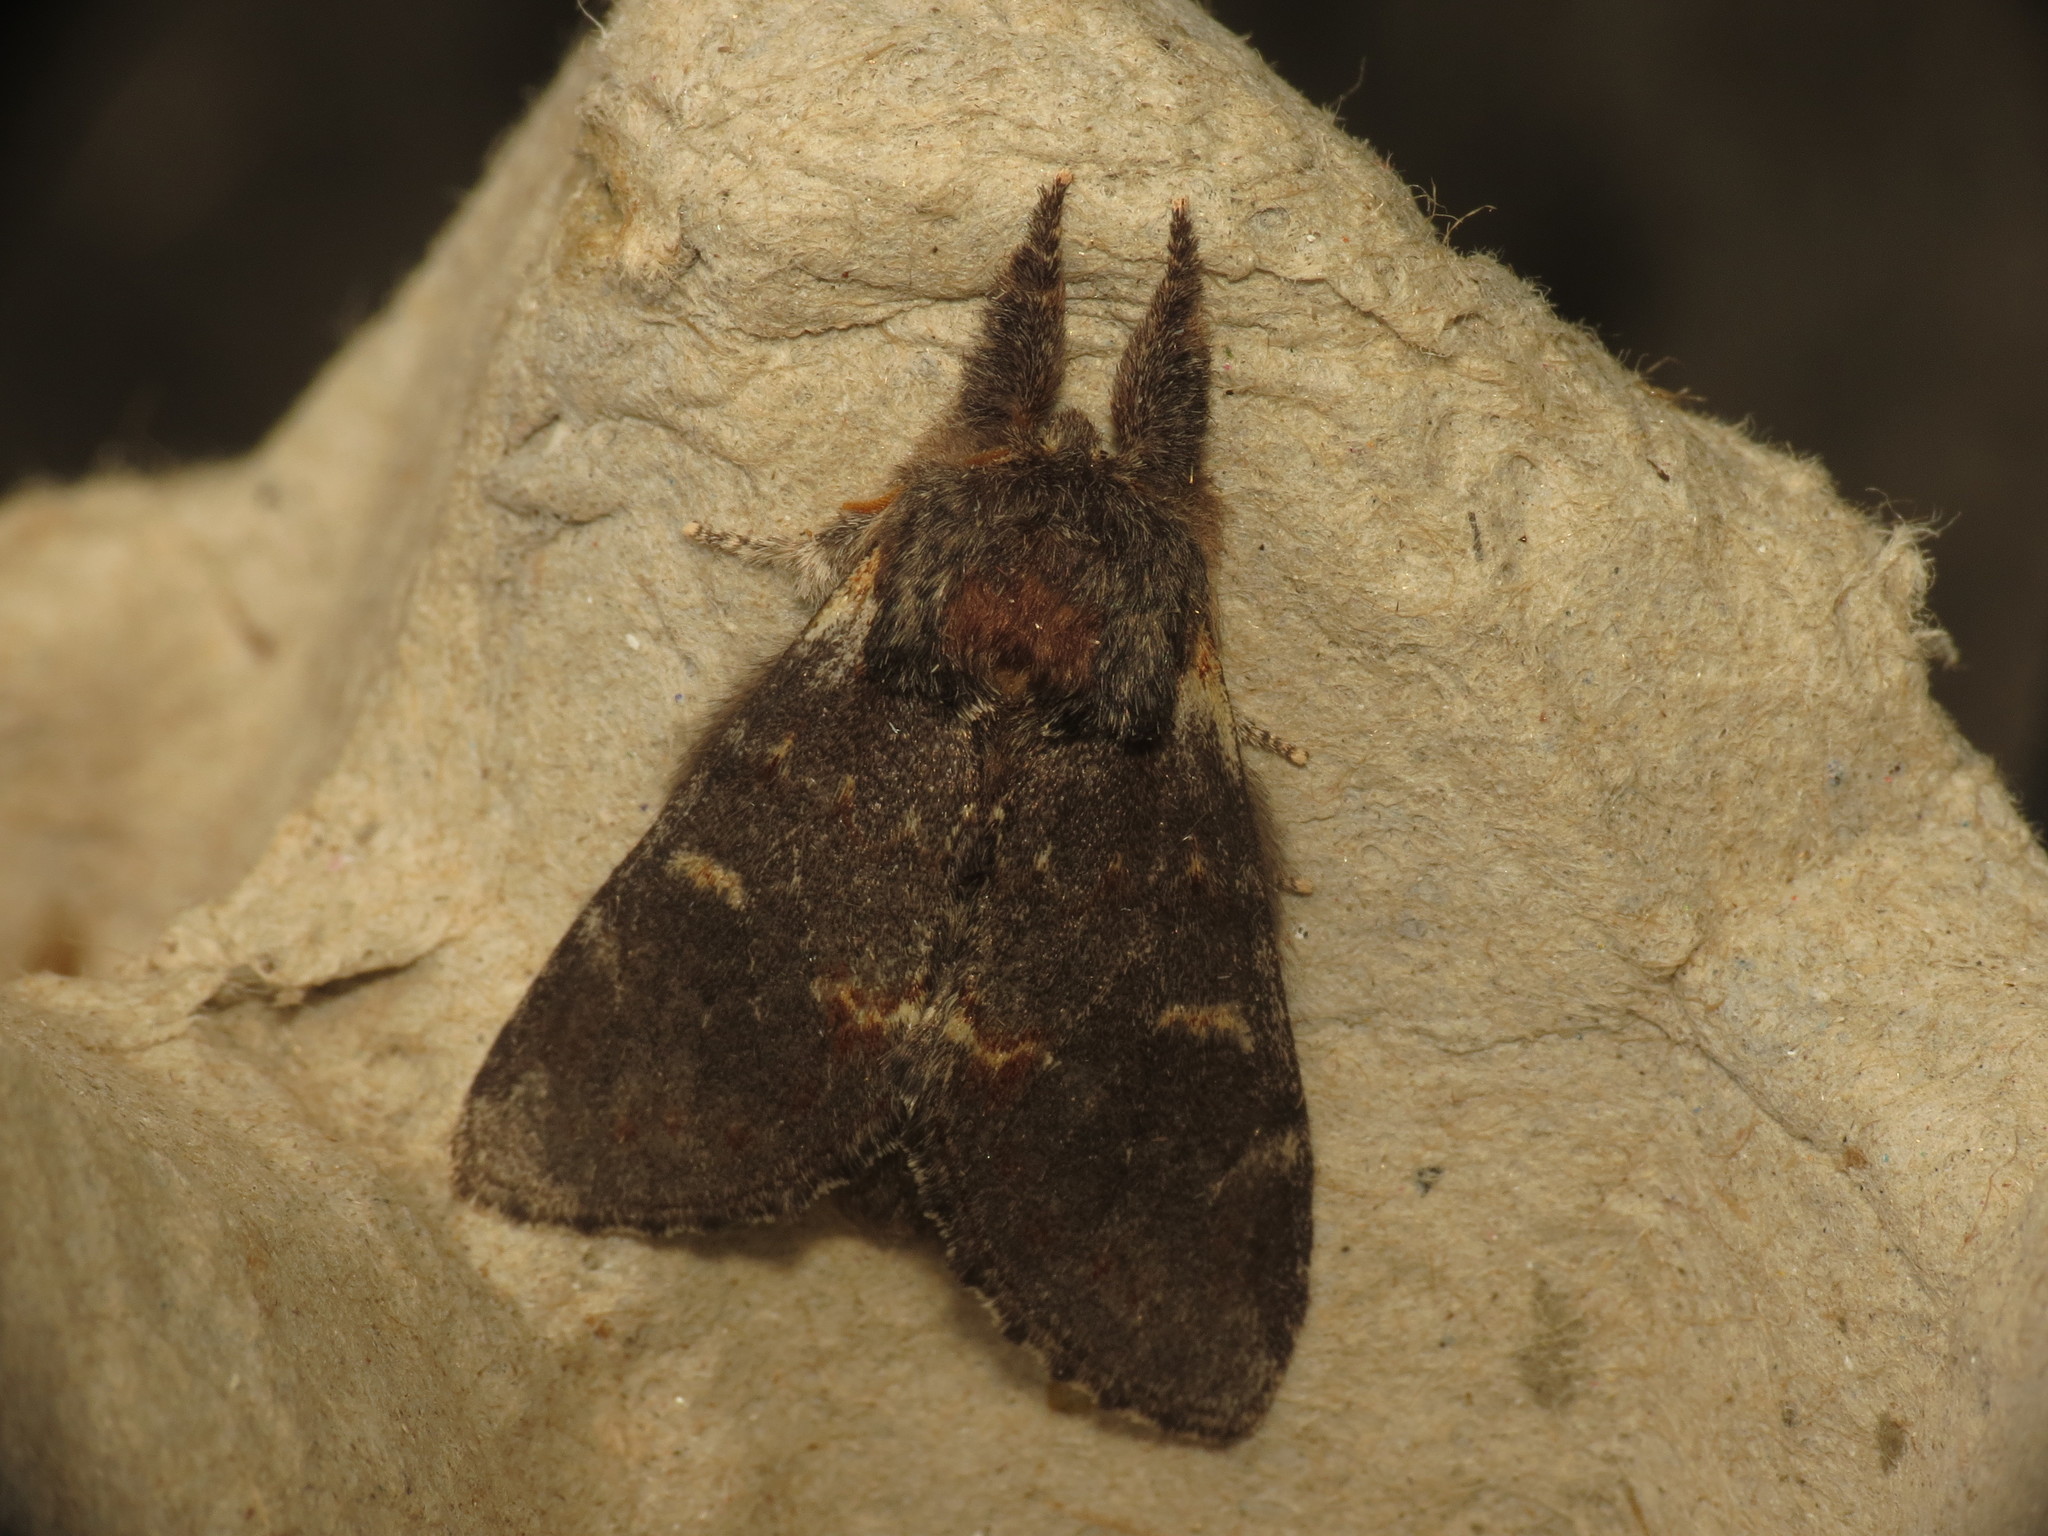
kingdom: Animalia
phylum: Arthropoda
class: Insecta
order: Lepidoptera
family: Notodontidae
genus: Notodonta
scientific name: Notodonta dromedarius
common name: Iron prominent
